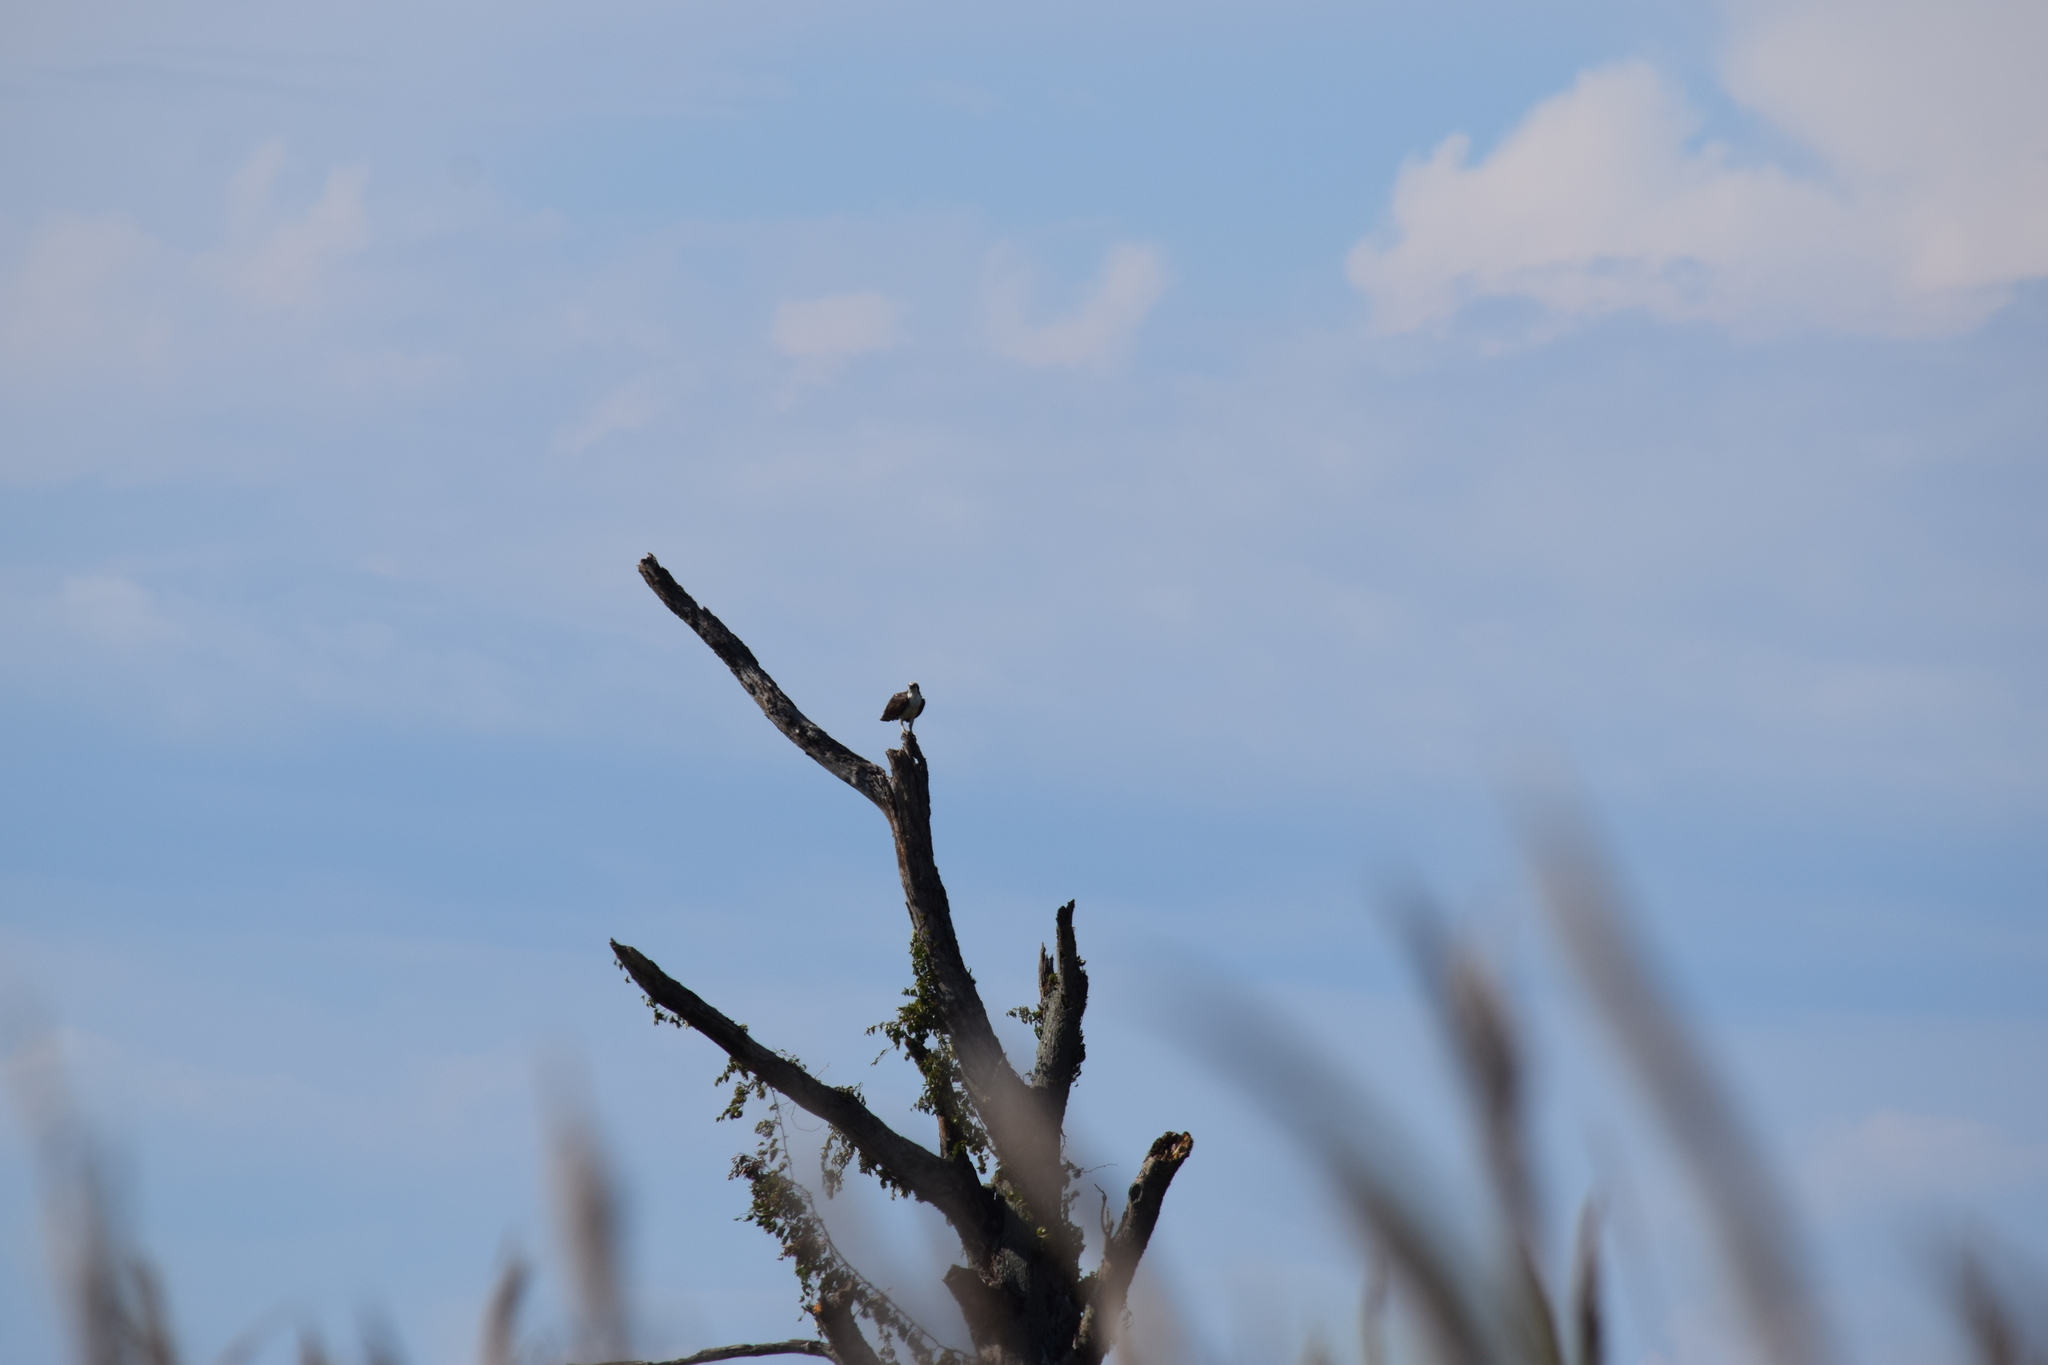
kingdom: Animalia
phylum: Chordata
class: Aves
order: Accipitriformes
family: Pandionidae
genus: Pandion
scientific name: Pandion haliaetus
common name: Osprey
